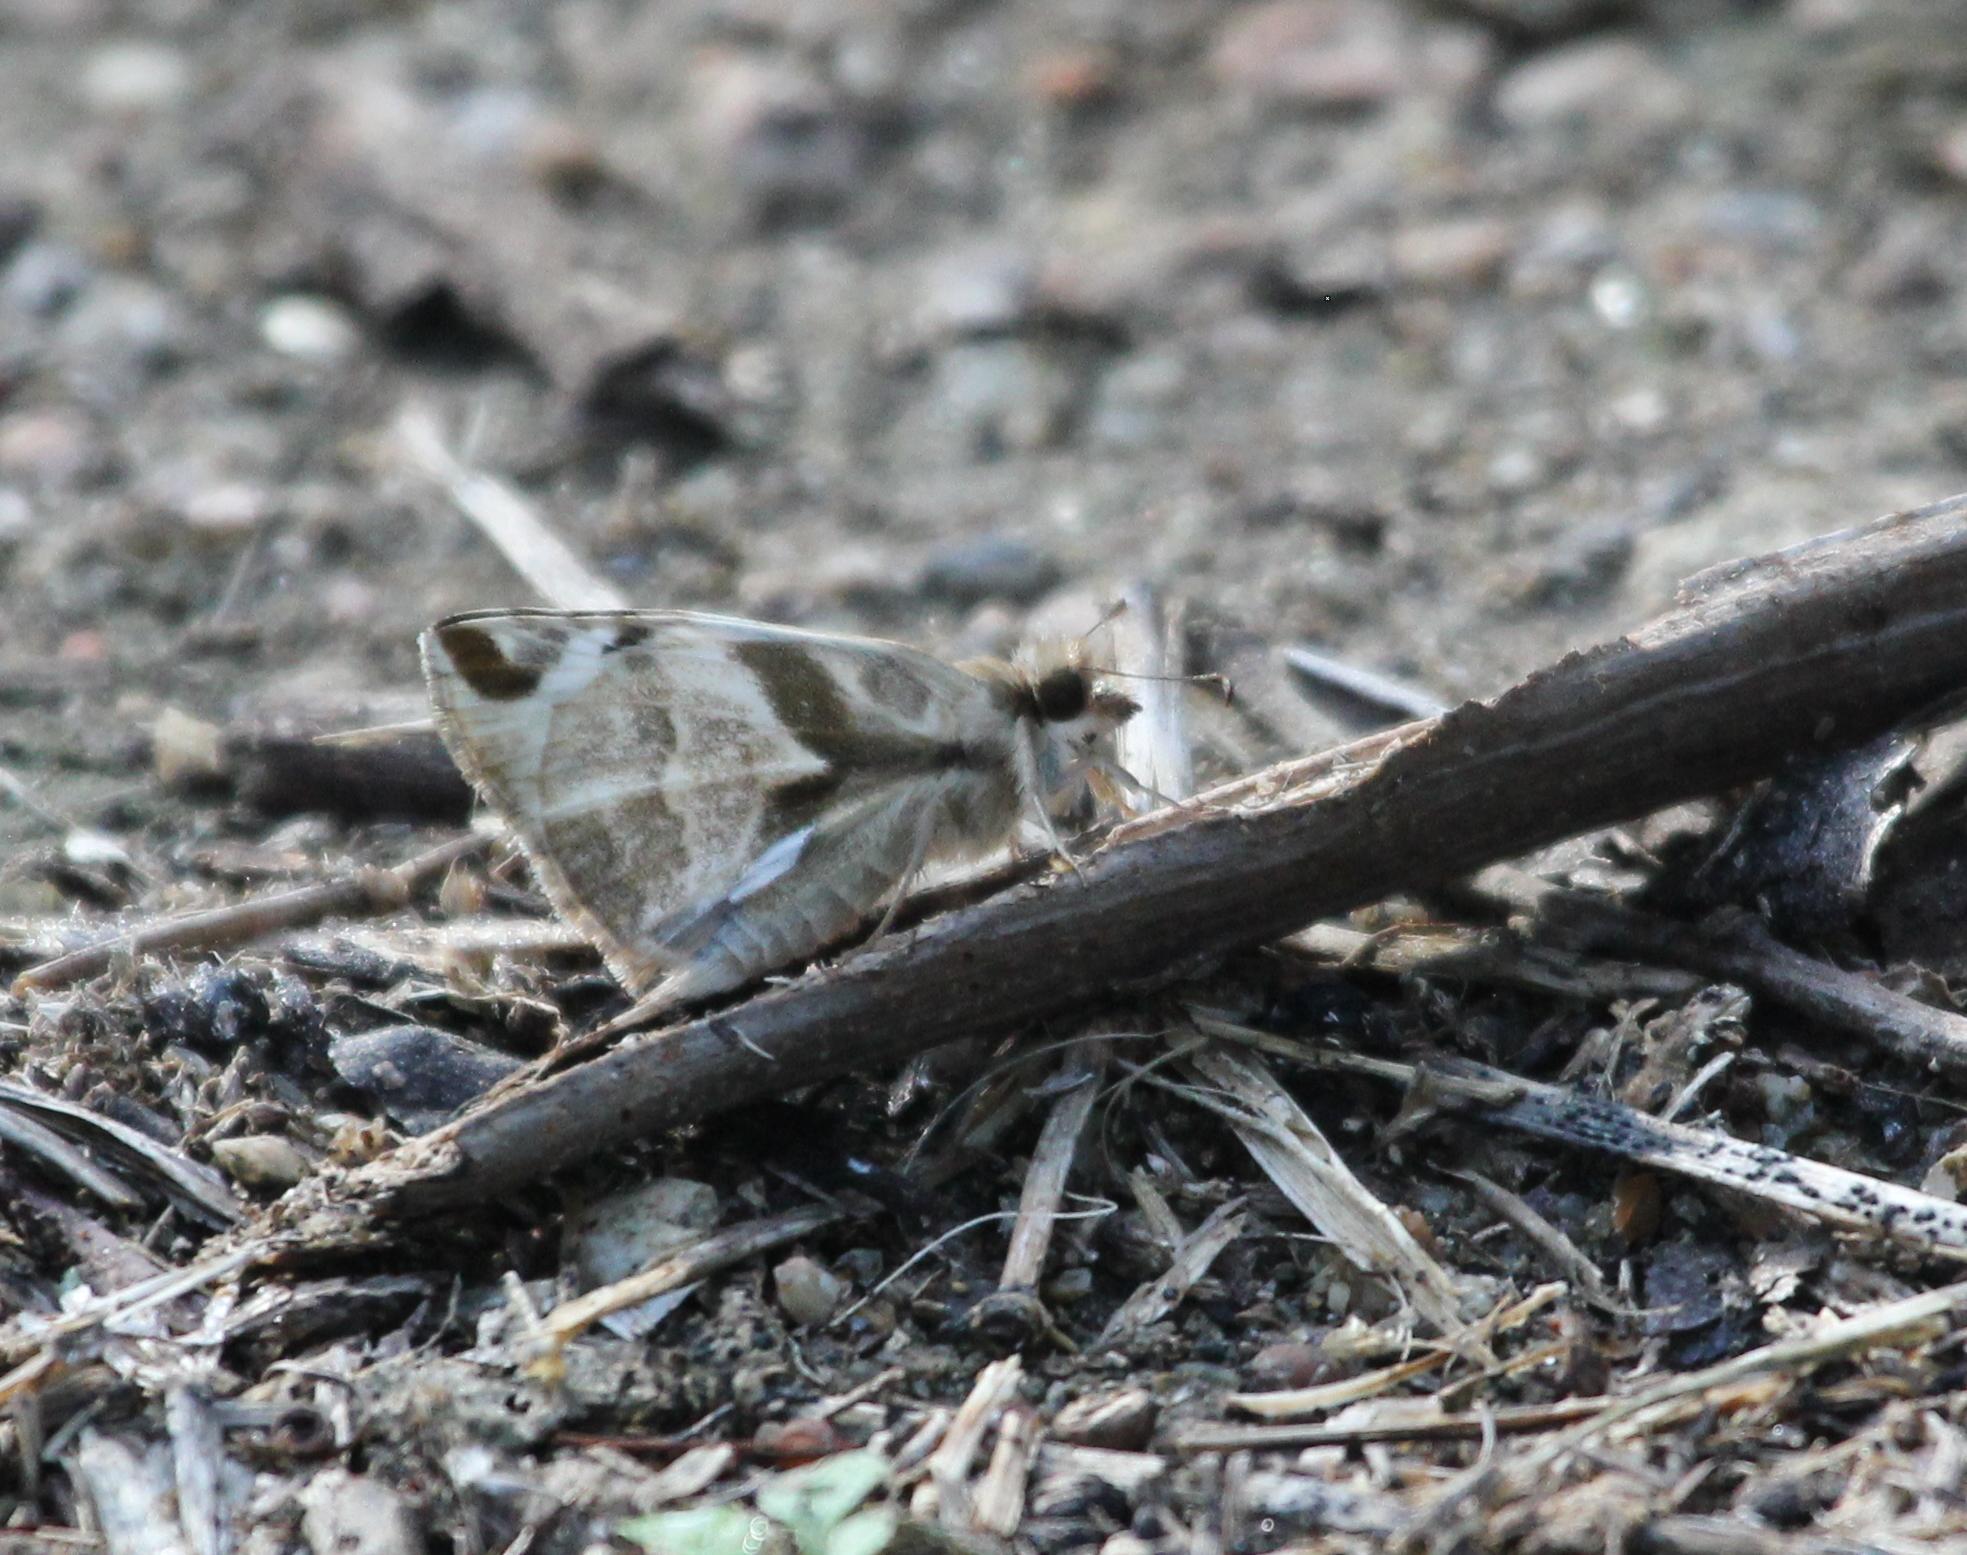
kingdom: Animalia
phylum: Arthropoda
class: Insecta
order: Lepidoptera
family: Hesperiidae
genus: Heliopetes
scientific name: Heliopetes laviana
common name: Laviana white-skipper
